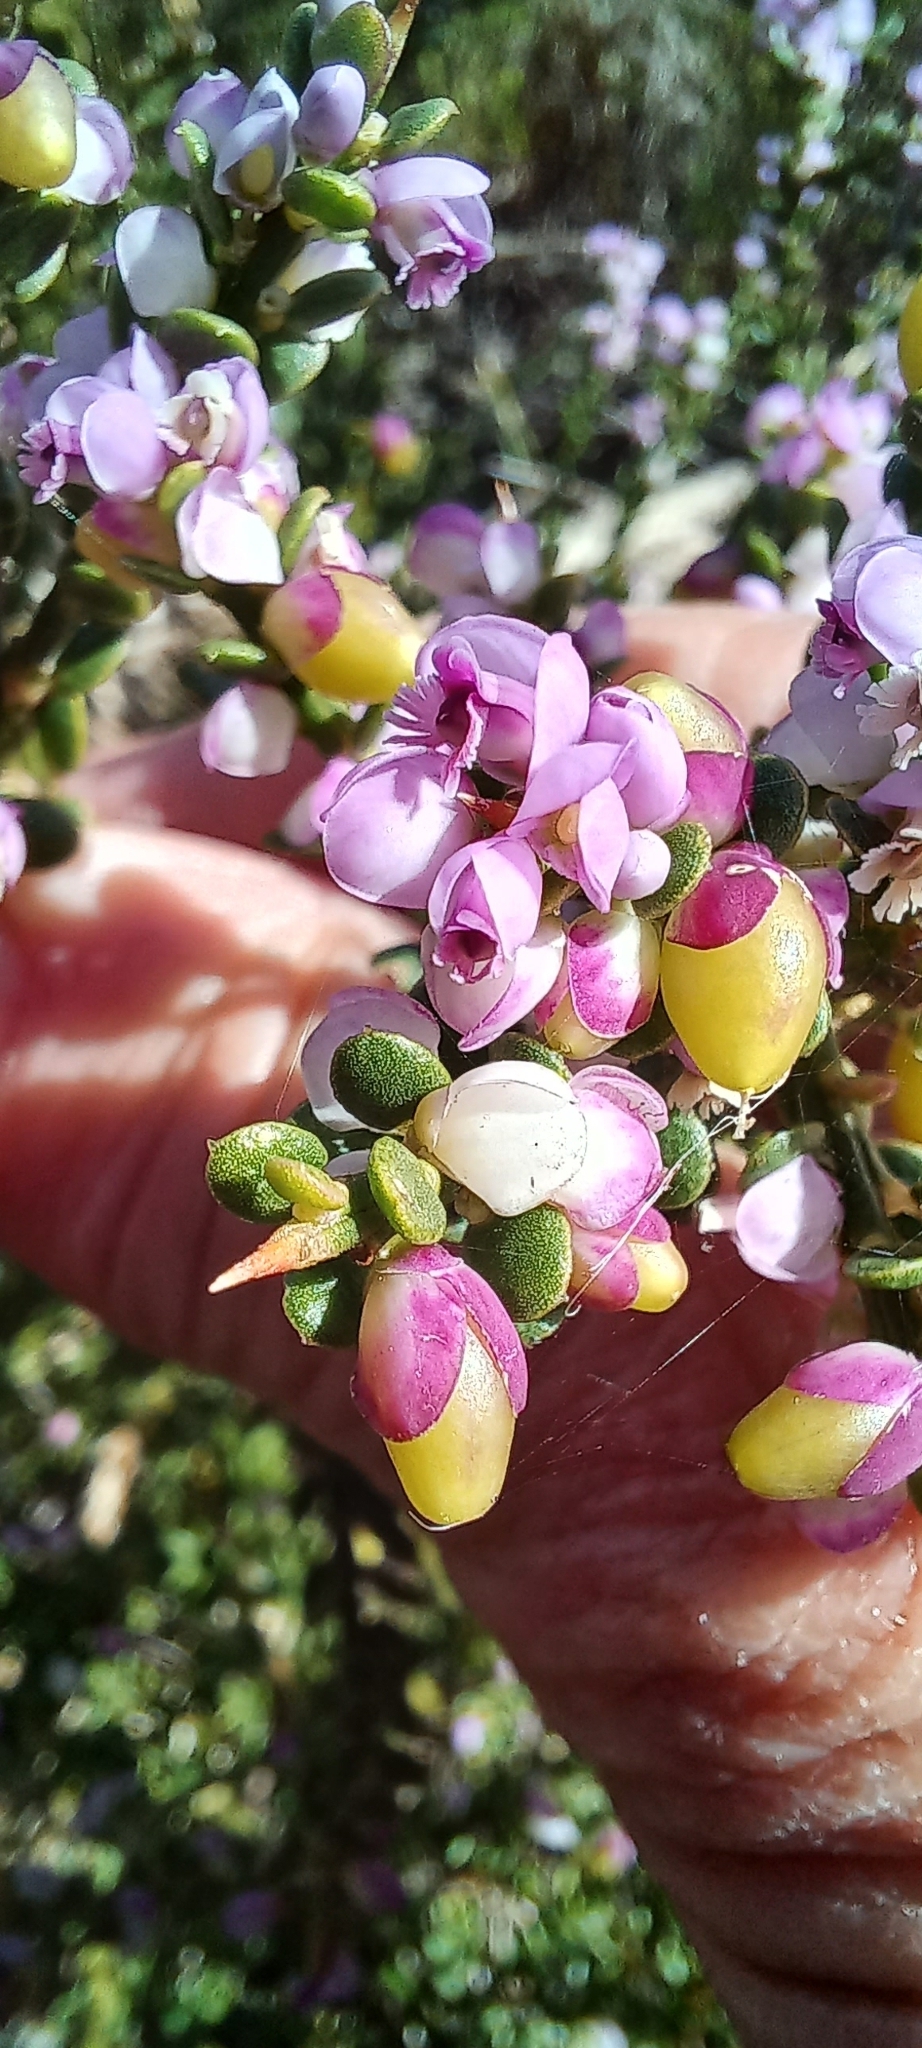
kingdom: Plantae
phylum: Tracheophyta
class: Magnoliopsida
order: Fabales
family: Polygalaceae
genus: Muraltia
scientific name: Muraltia spinosa
